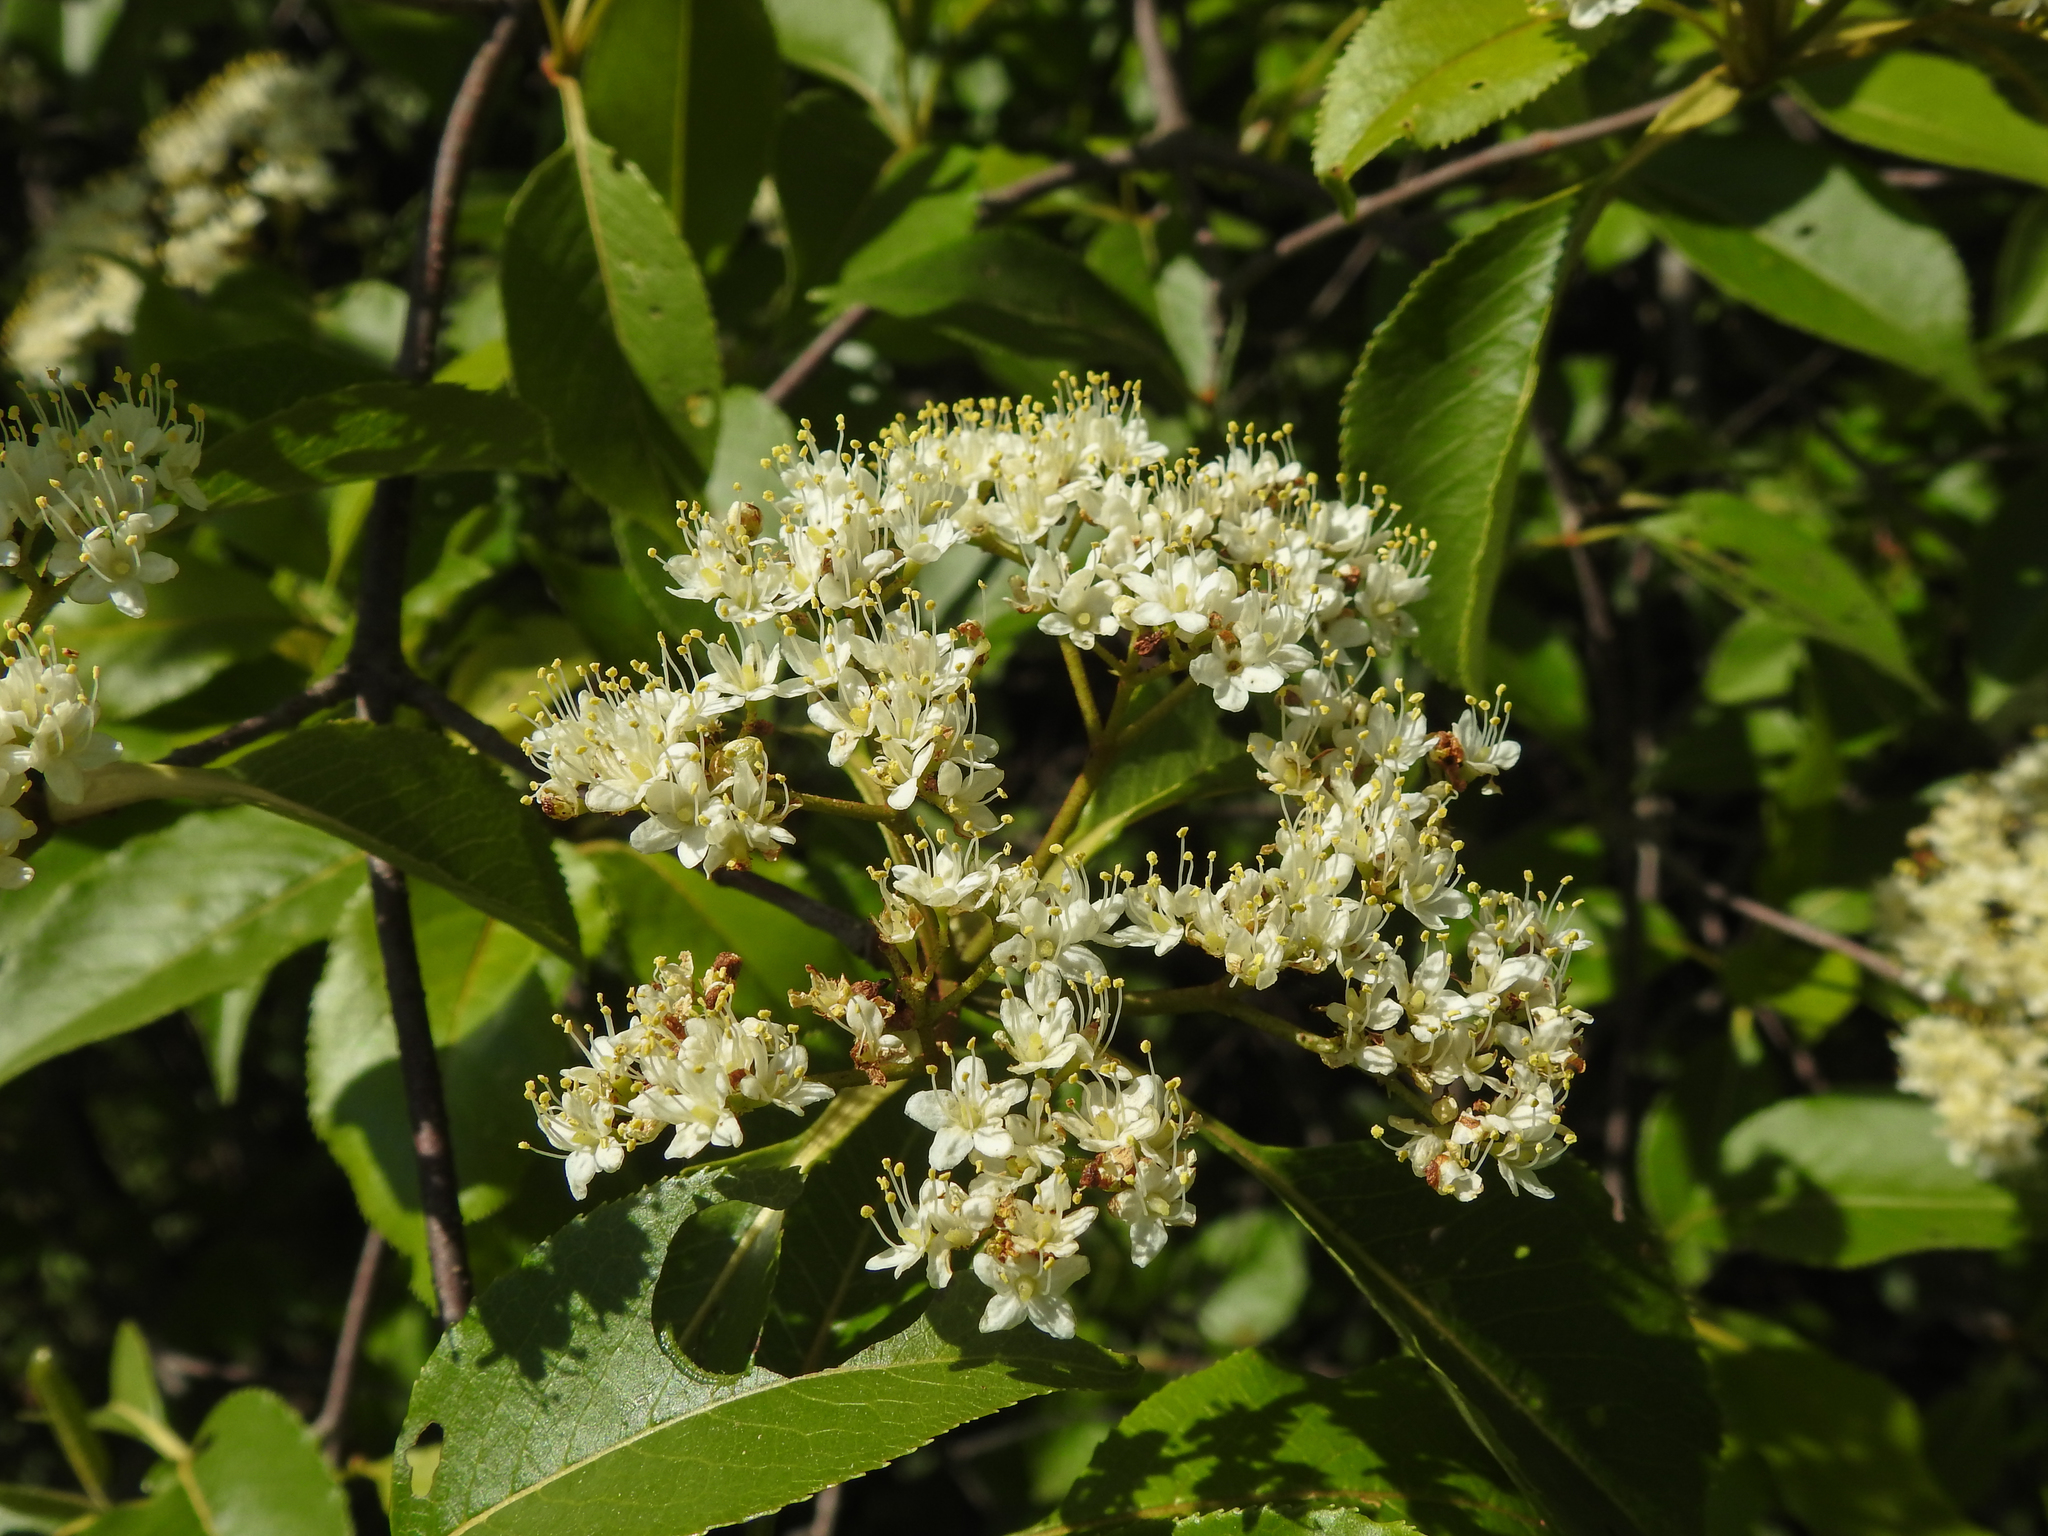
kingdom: Plantae
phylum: Tracheophyta
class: Magnoliopsida
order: Dipsacales
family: Viburnaceae
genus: Viburnum
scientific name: Viburnum lentago
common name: Black haw
